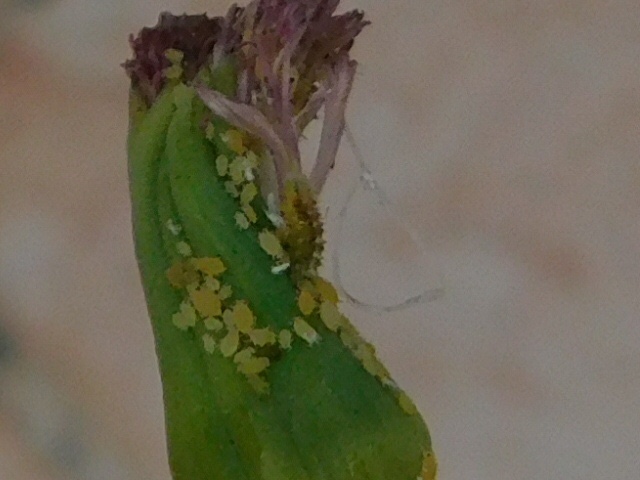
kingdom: Animalia
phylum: Arthropoda
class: Insecta
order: Diptera
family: Syrphidae
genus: Dioprosopa
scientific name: Dioprosopa clavatus
